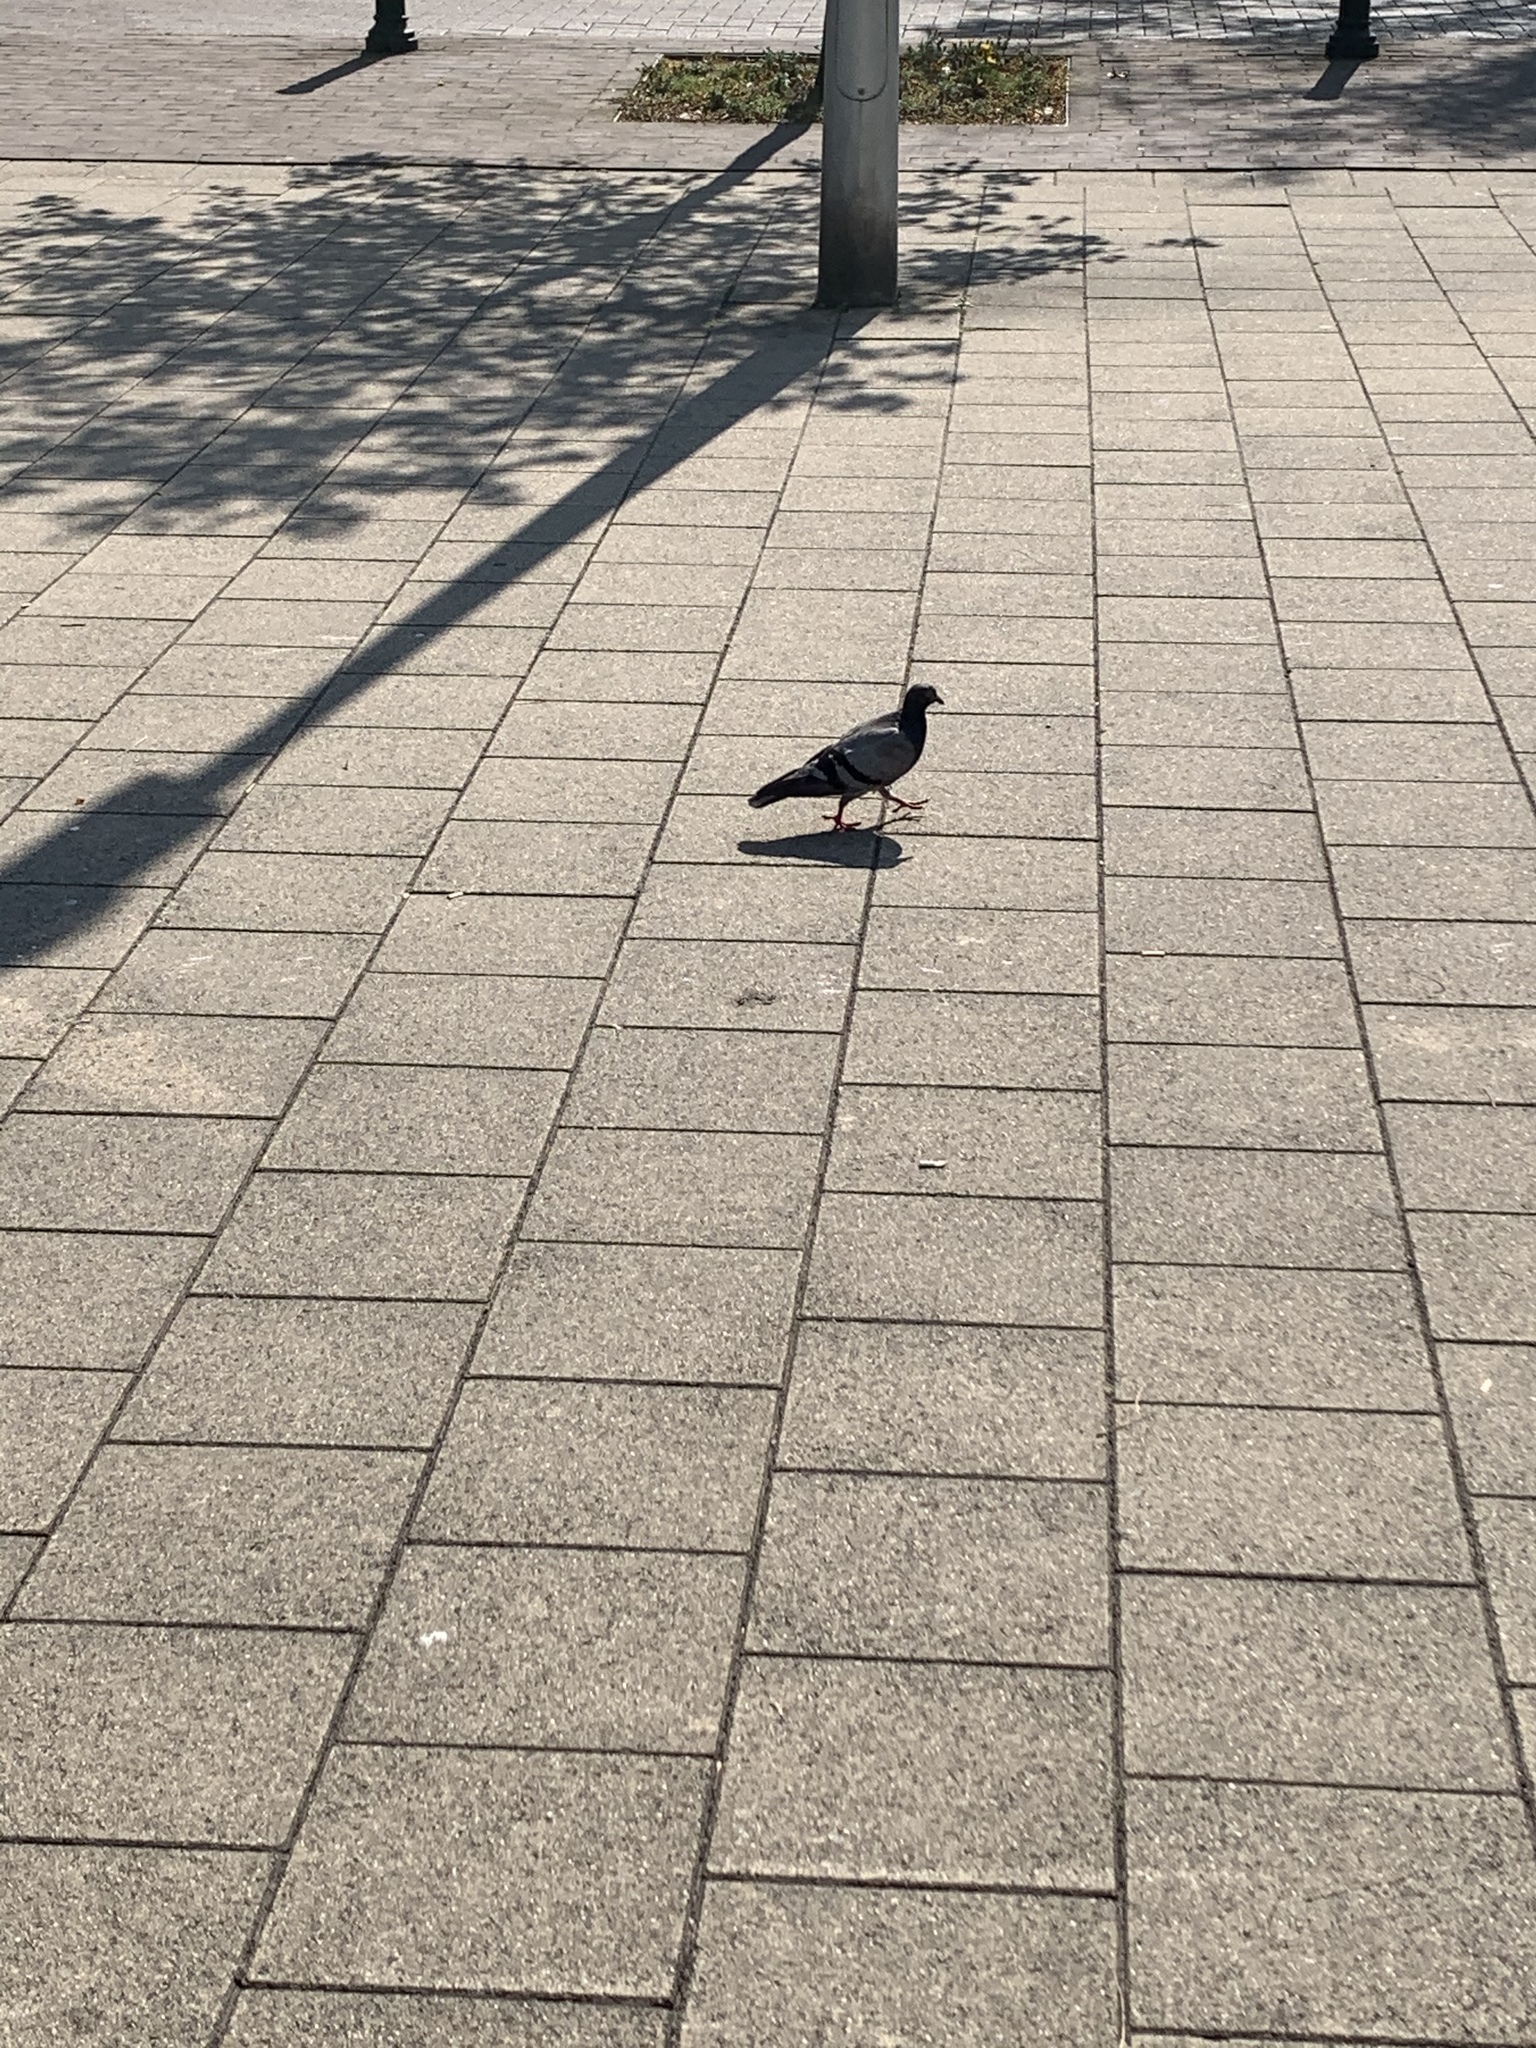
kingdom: Animalia
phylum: Chordata
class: Aves
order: Columbiformes
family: Columbidae
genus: Columba
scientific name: Columba livia
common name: Rock pigeon
